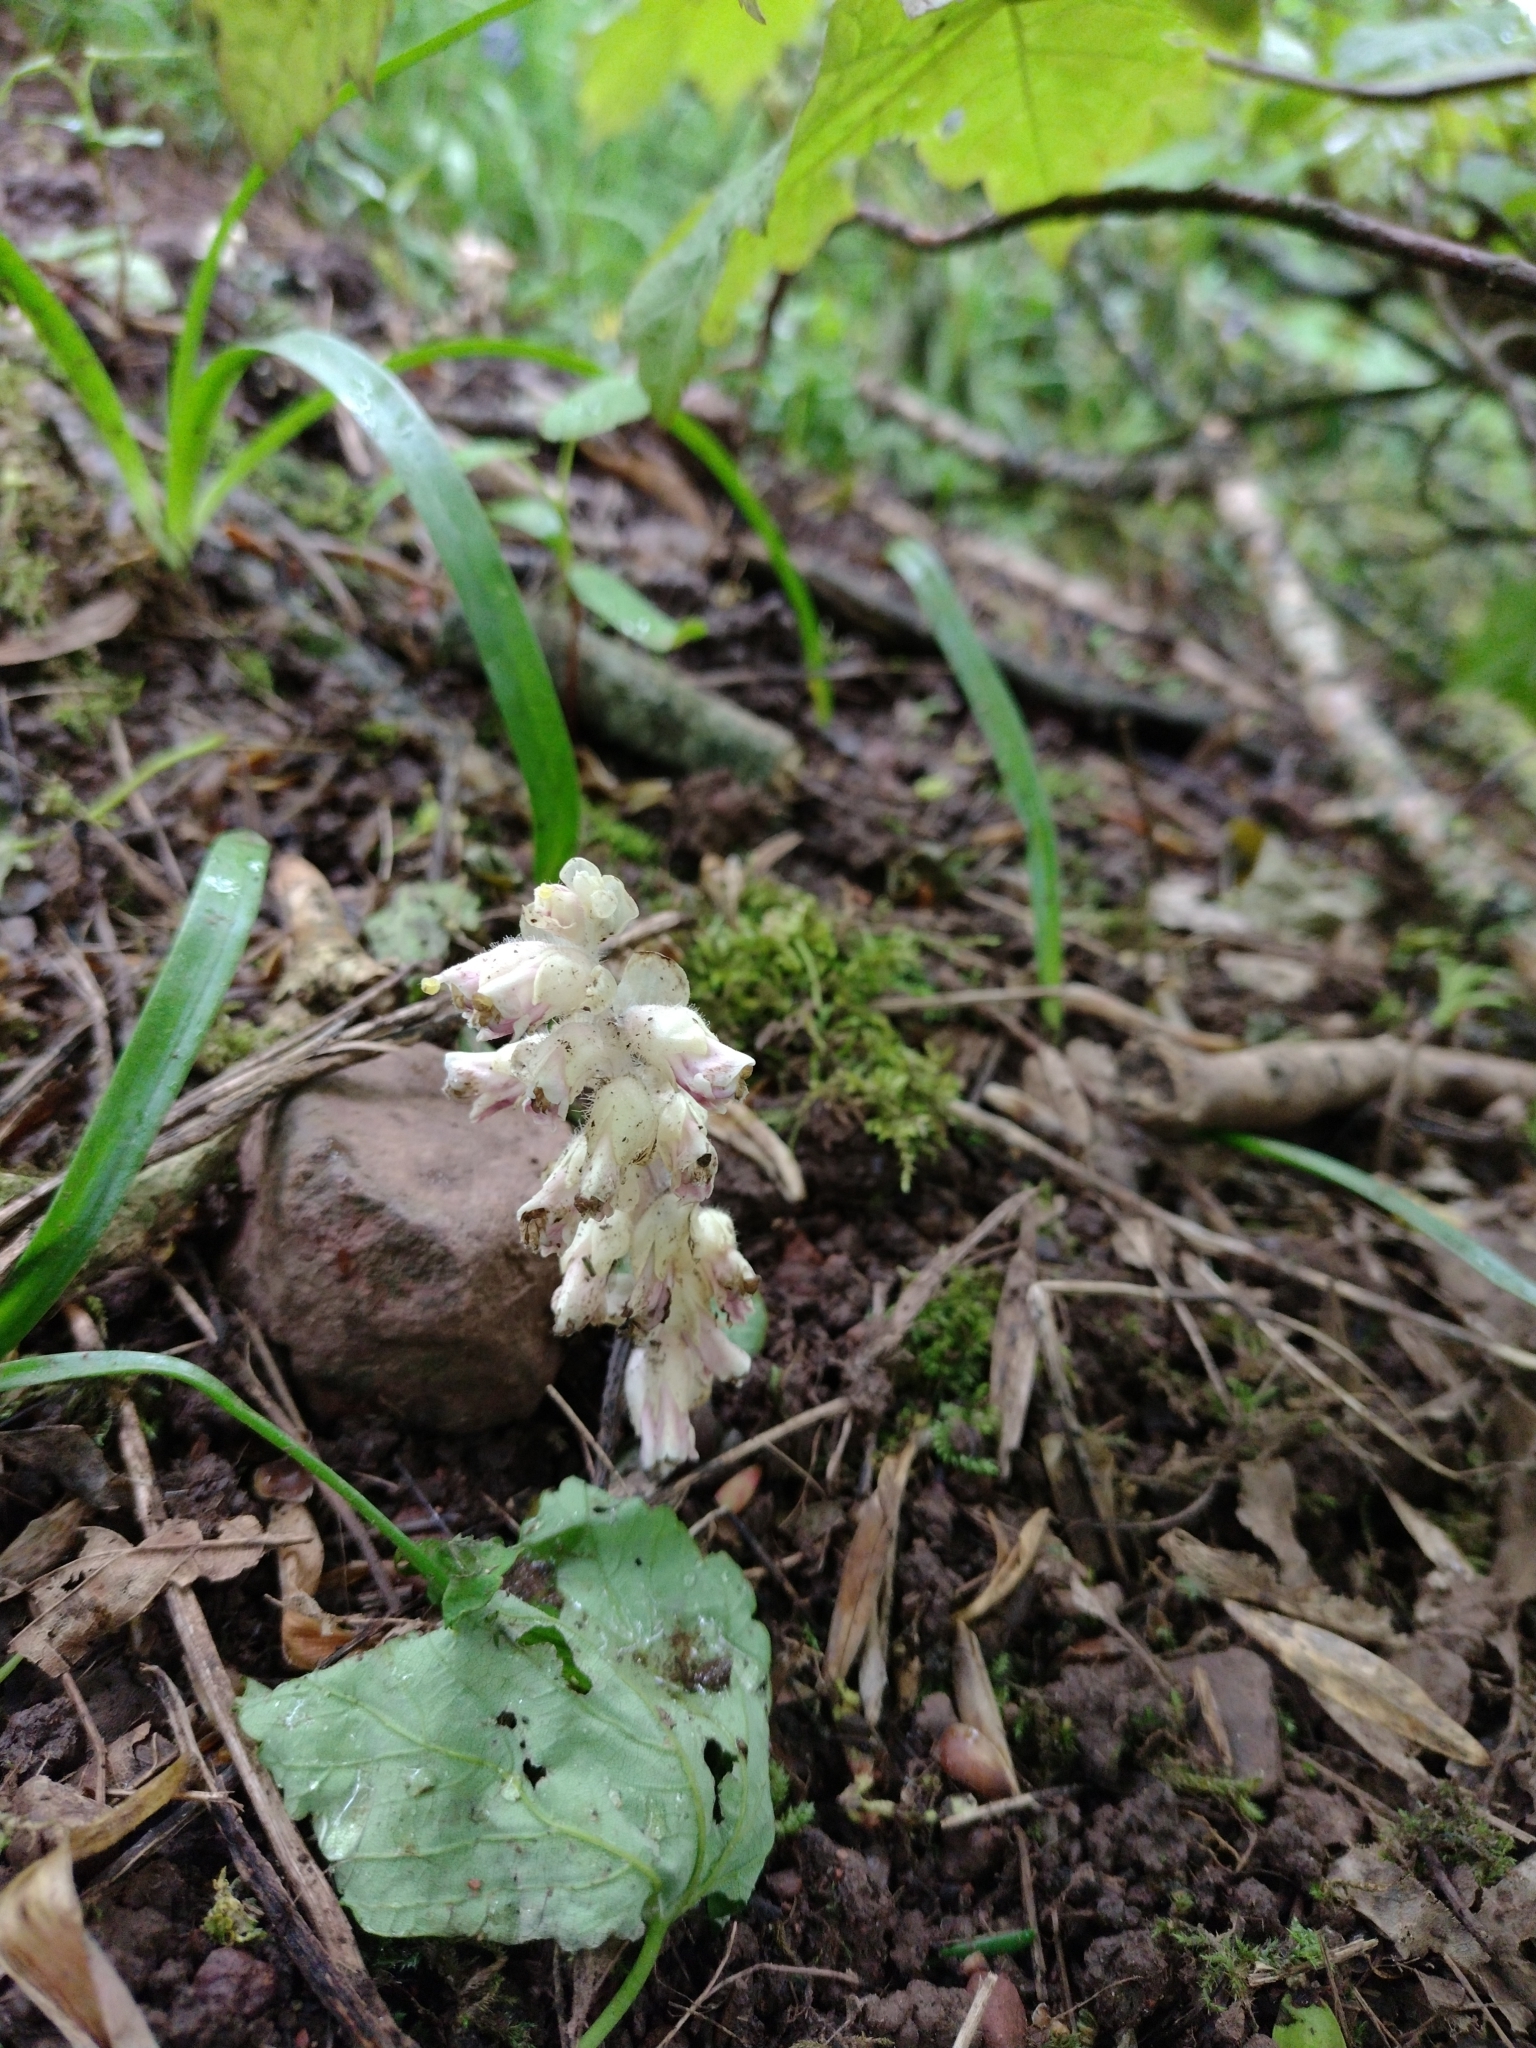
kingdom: Plantae
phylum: Tracheophyta
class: Magnoliopsida
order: Lamiales
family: Orobanchaceae
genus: Lathraea
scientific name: Lathraea squamaria
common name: Toothwort
